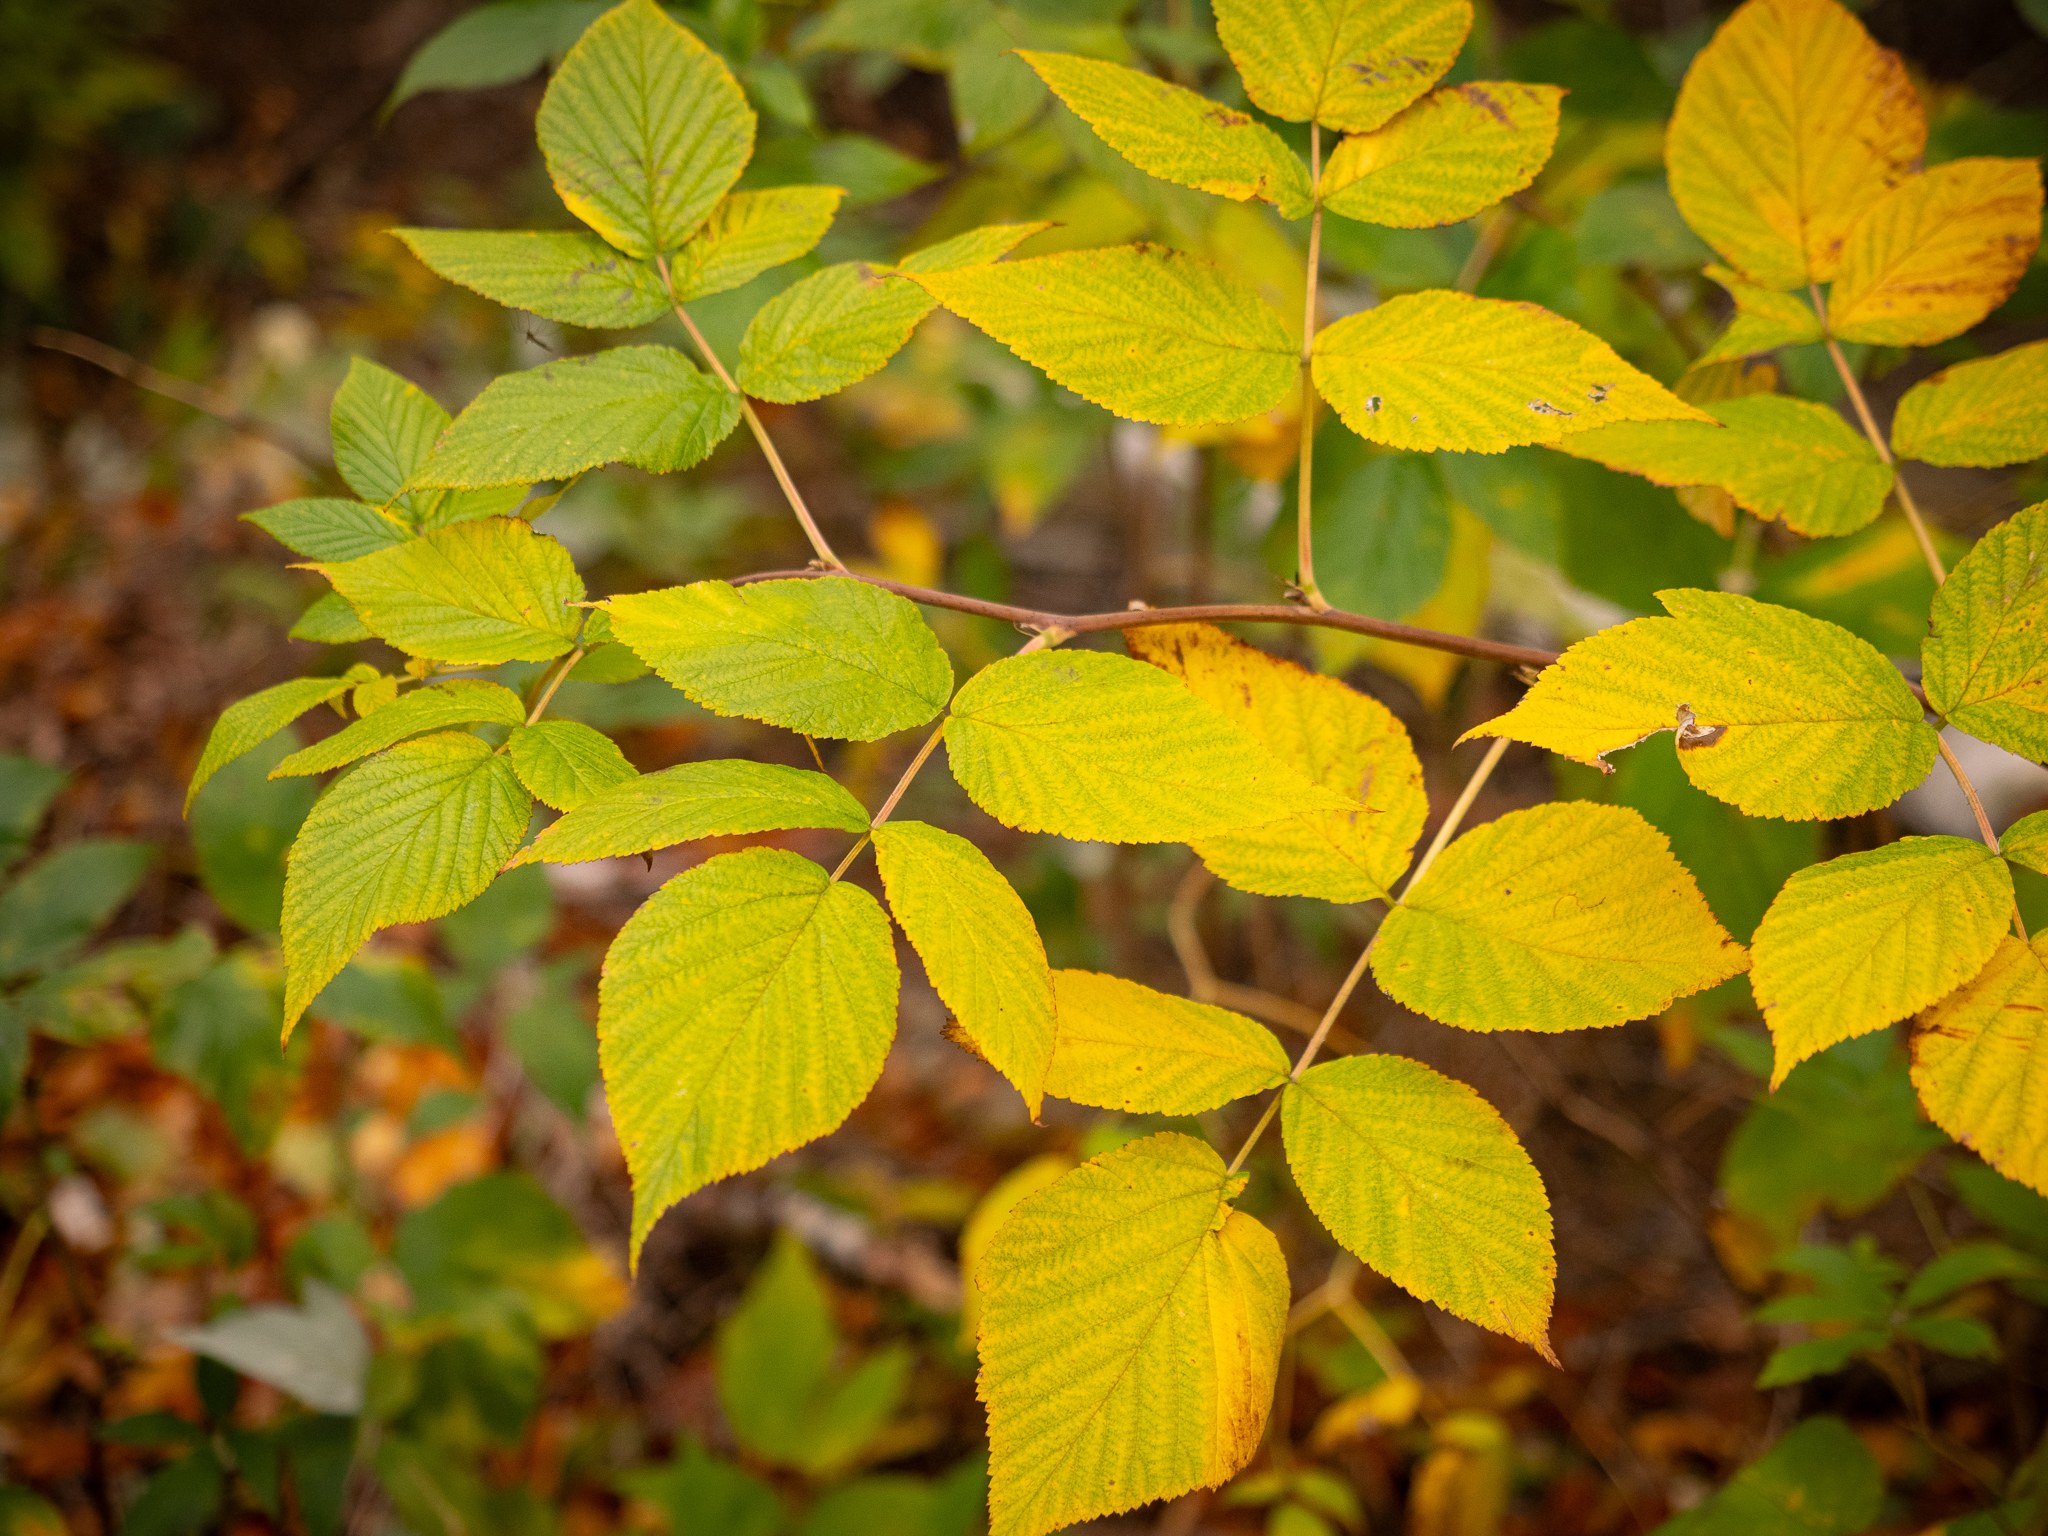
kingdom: Plantae
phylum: Tracheophyta
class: Magnoliopsida
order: Rosales
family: Rosaceae
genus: Rubus
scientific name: Rubus idaeus
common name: Raspberry
